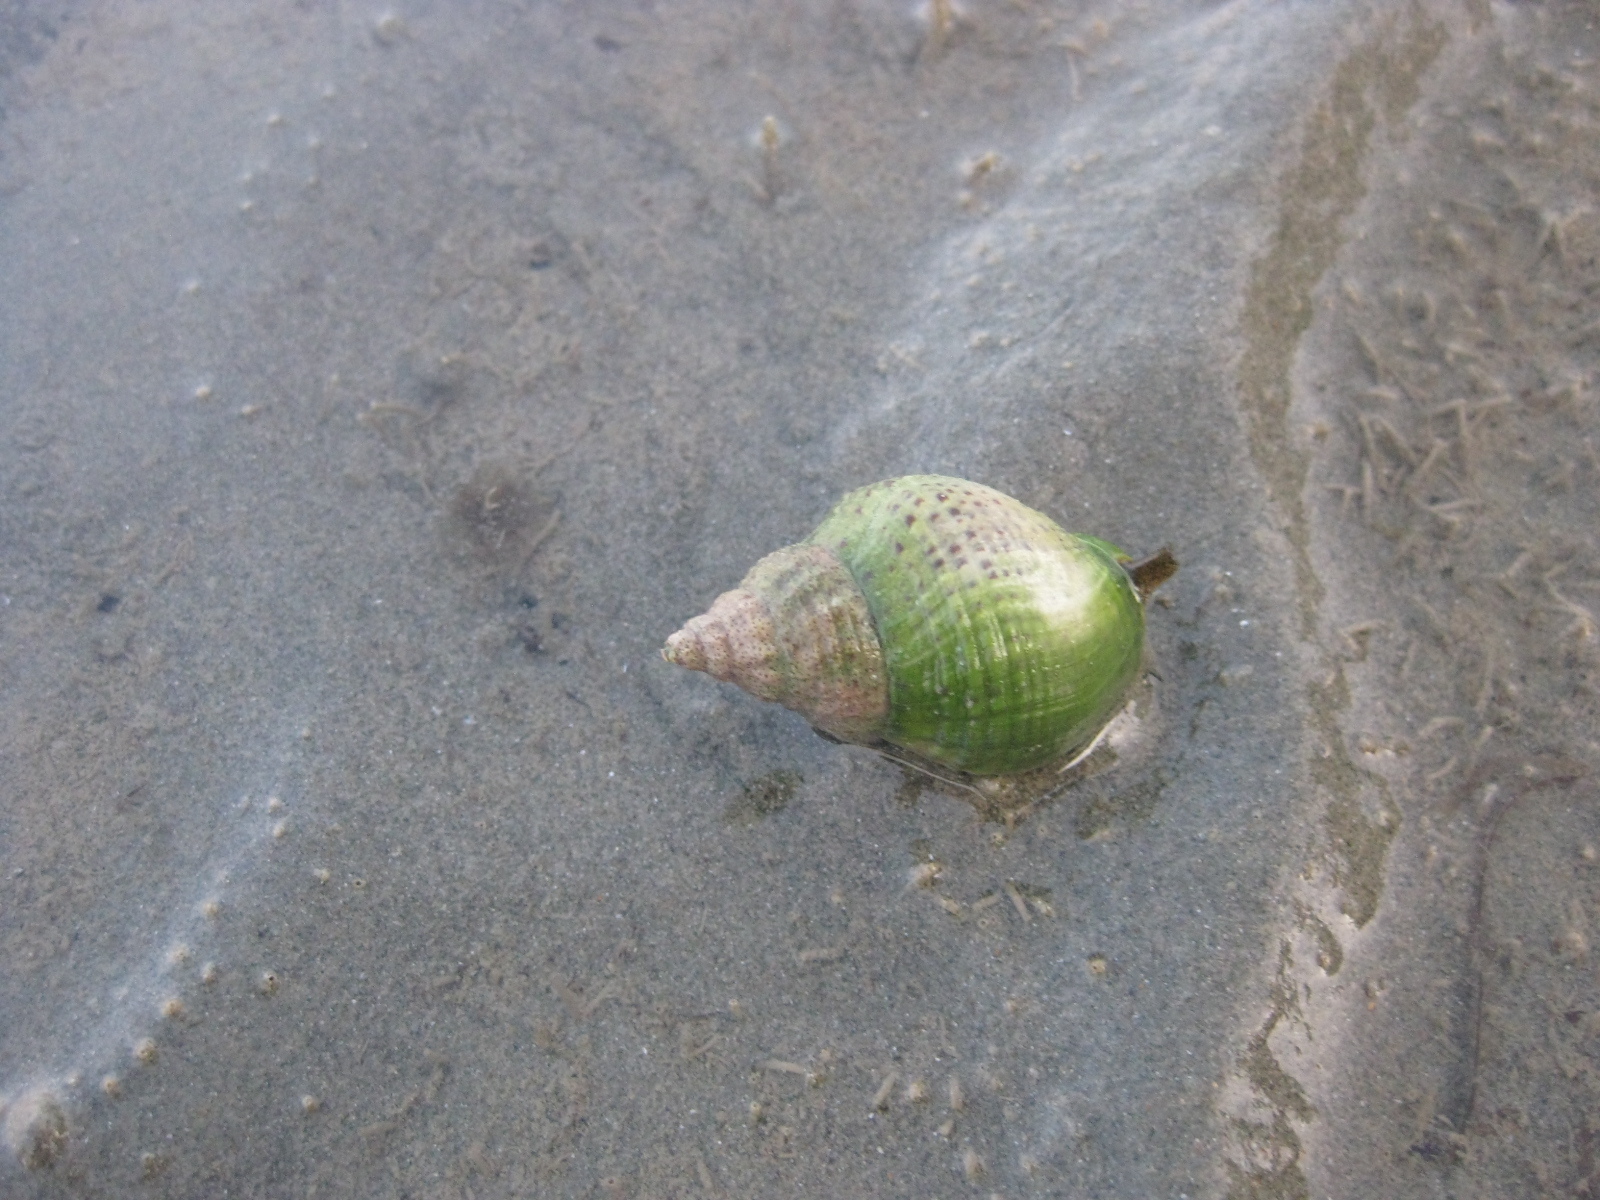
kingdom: Animalia
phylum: Mollusca
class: Gastropoda
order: Neogastropoda
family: Cominellidae
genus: Cominella
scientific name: Cominella adspersa
